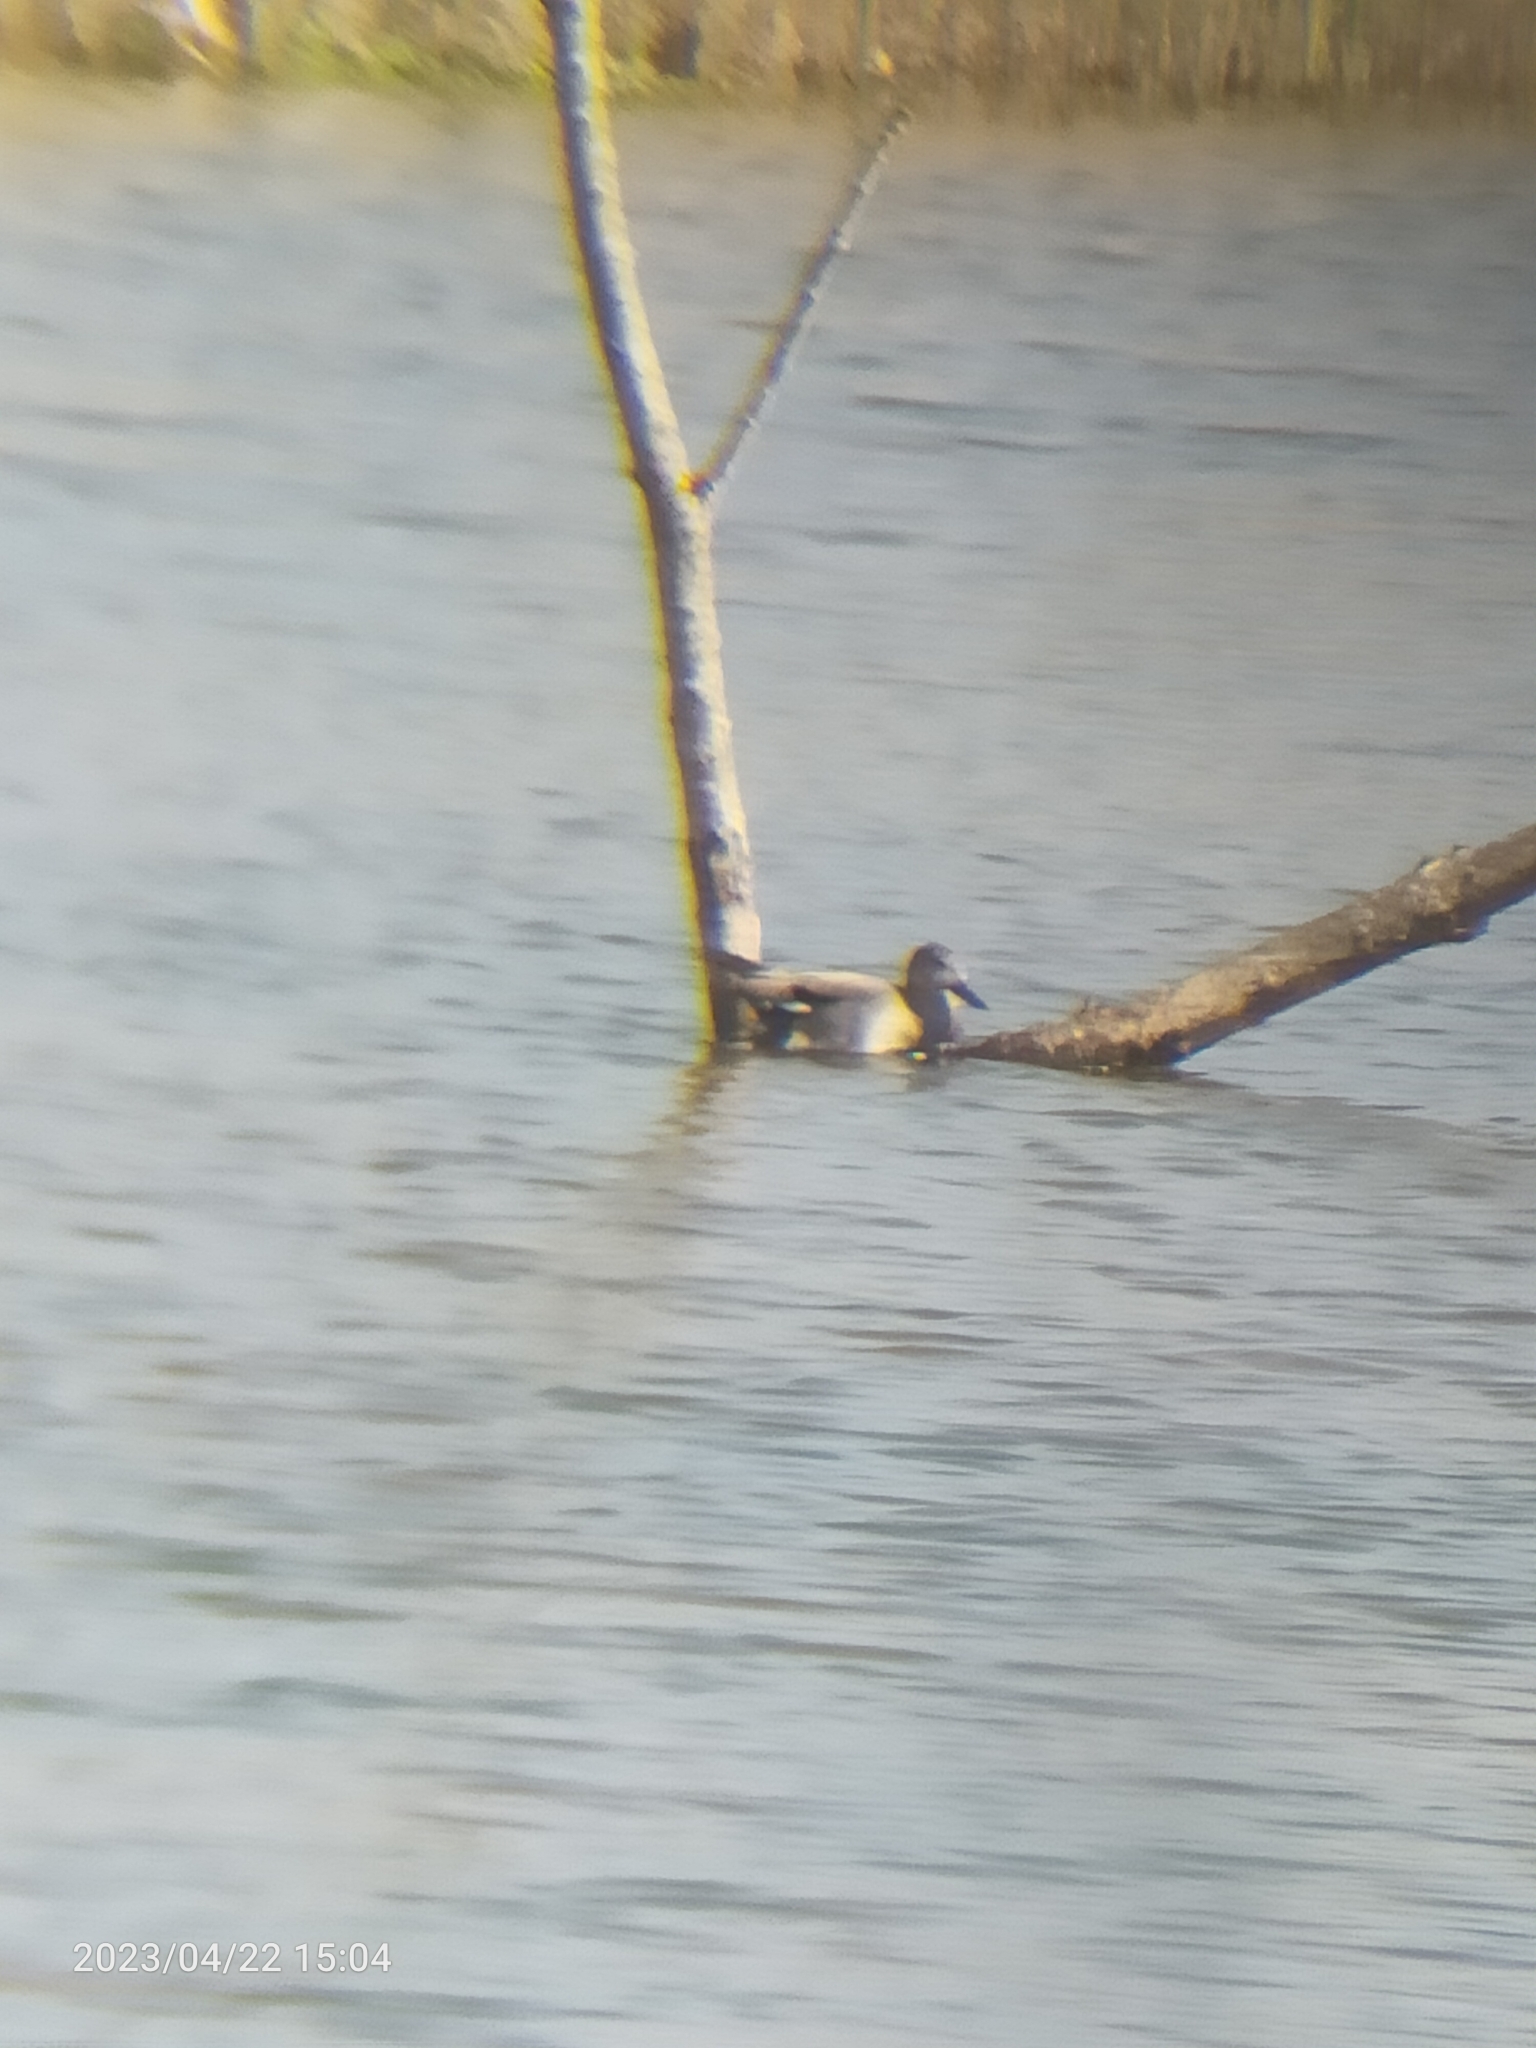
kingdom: Animalia
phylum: Chordata
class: Aves
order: Anseriformes
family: Anatidae
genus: Mareca
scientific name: Mareca strepera
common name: Gadwall
